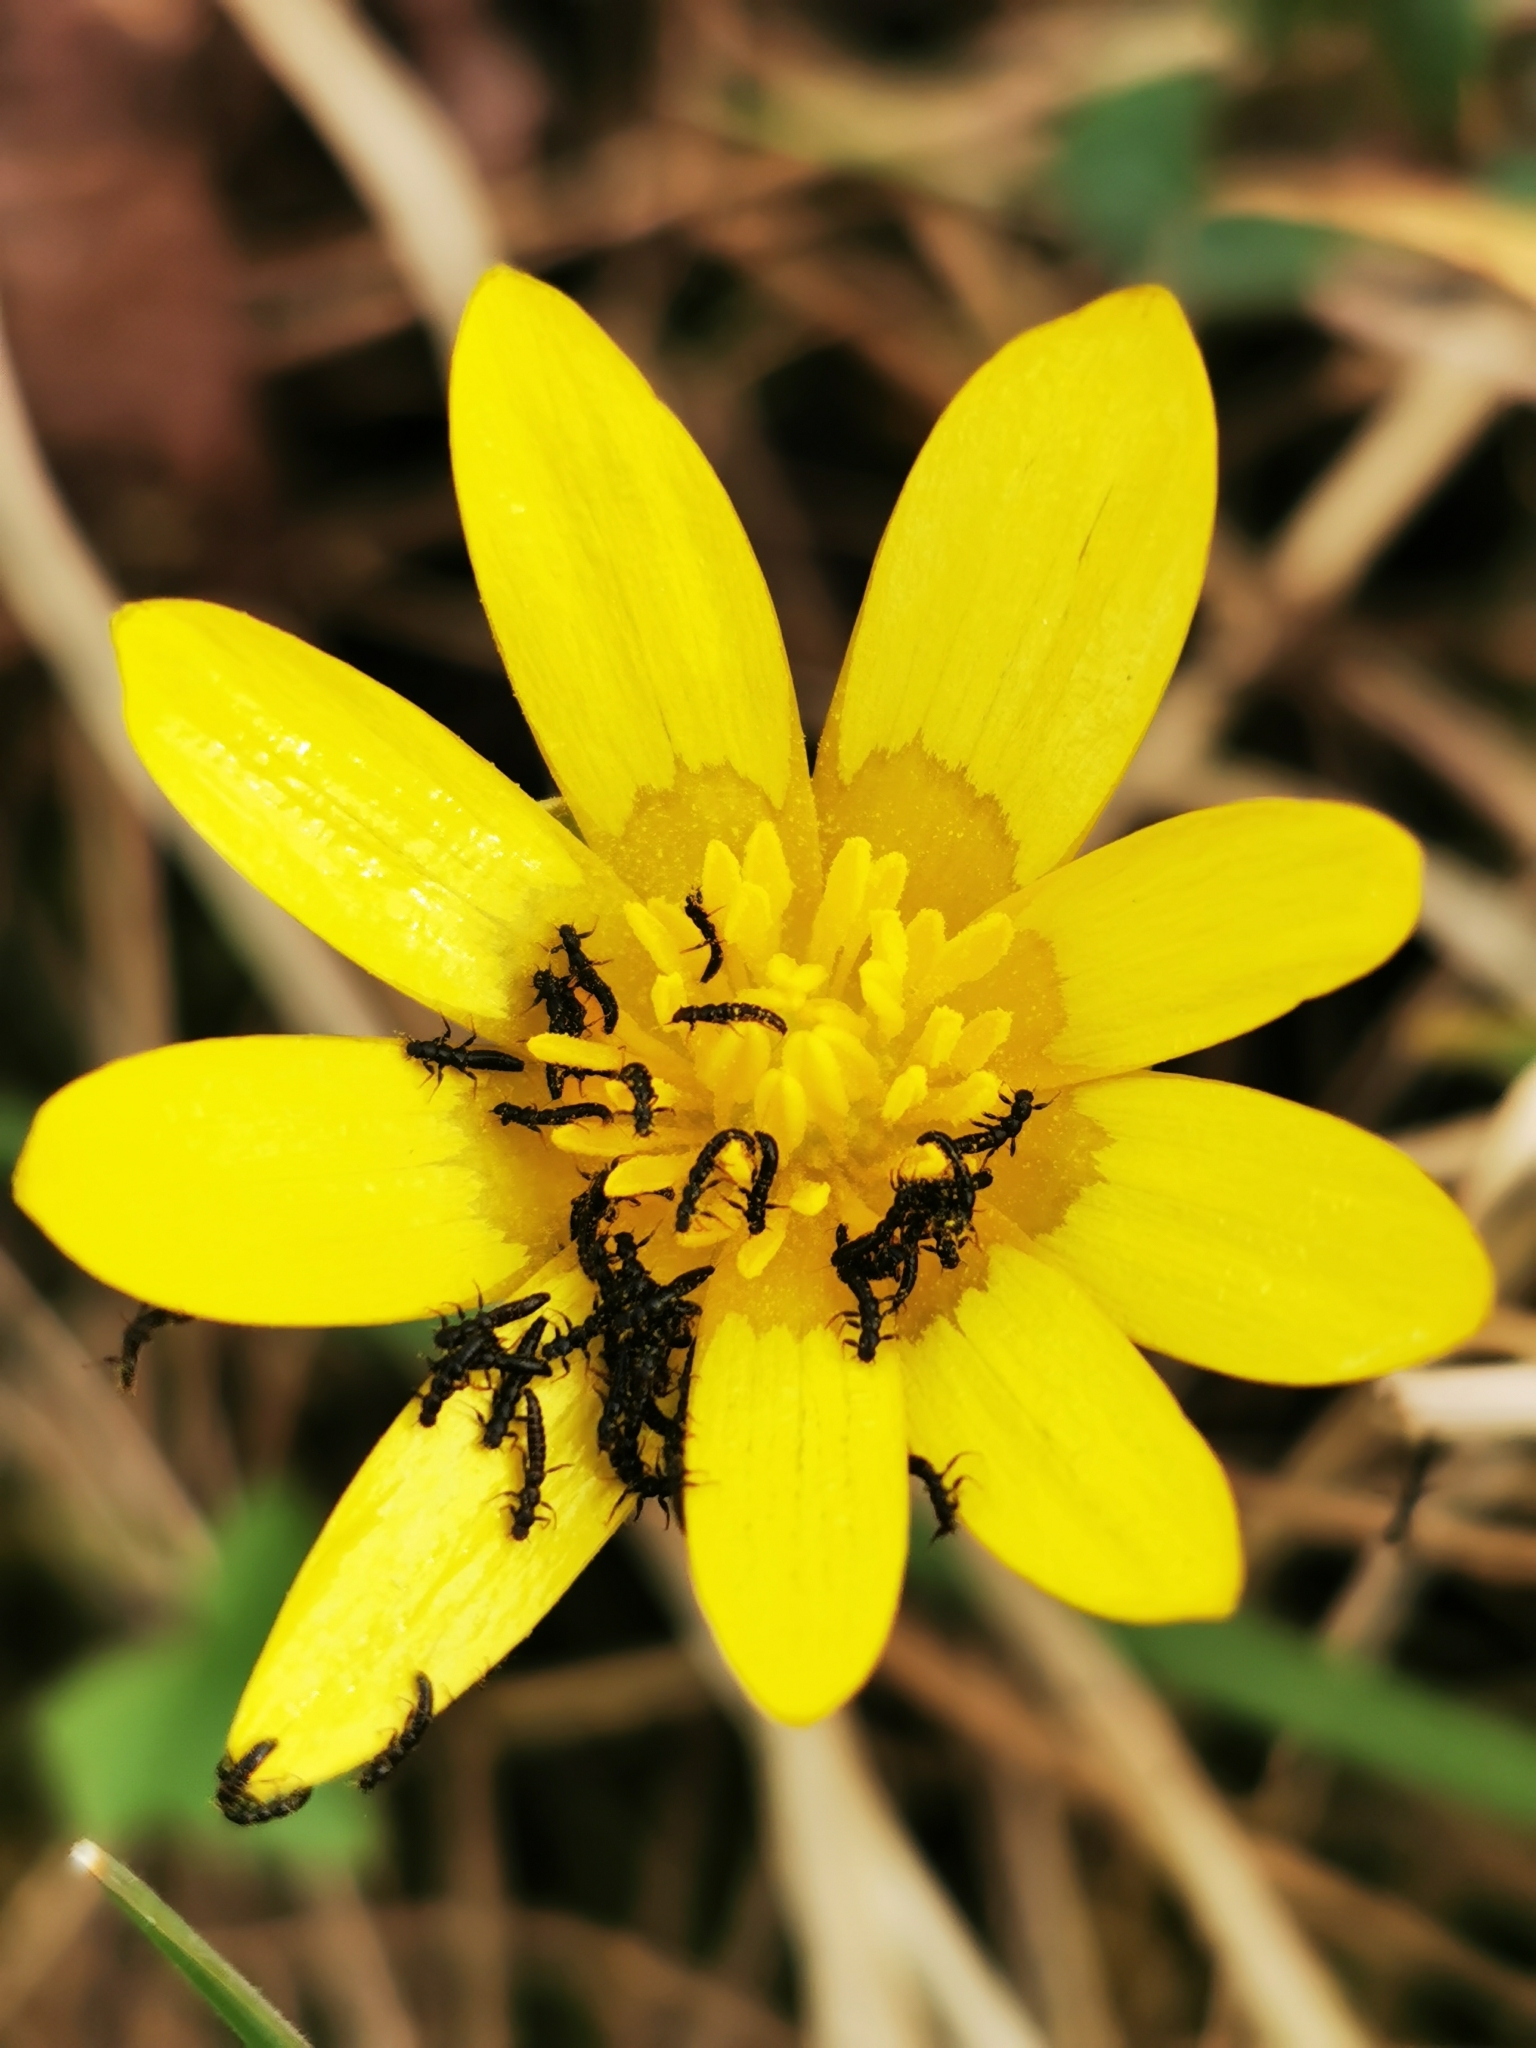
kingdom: Animalia
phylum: Arthropoda
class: Insecta
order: Coleoptera
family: Meloidae
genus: Meloe
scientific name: Meloe violaceus
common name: Violet oil-beetle
